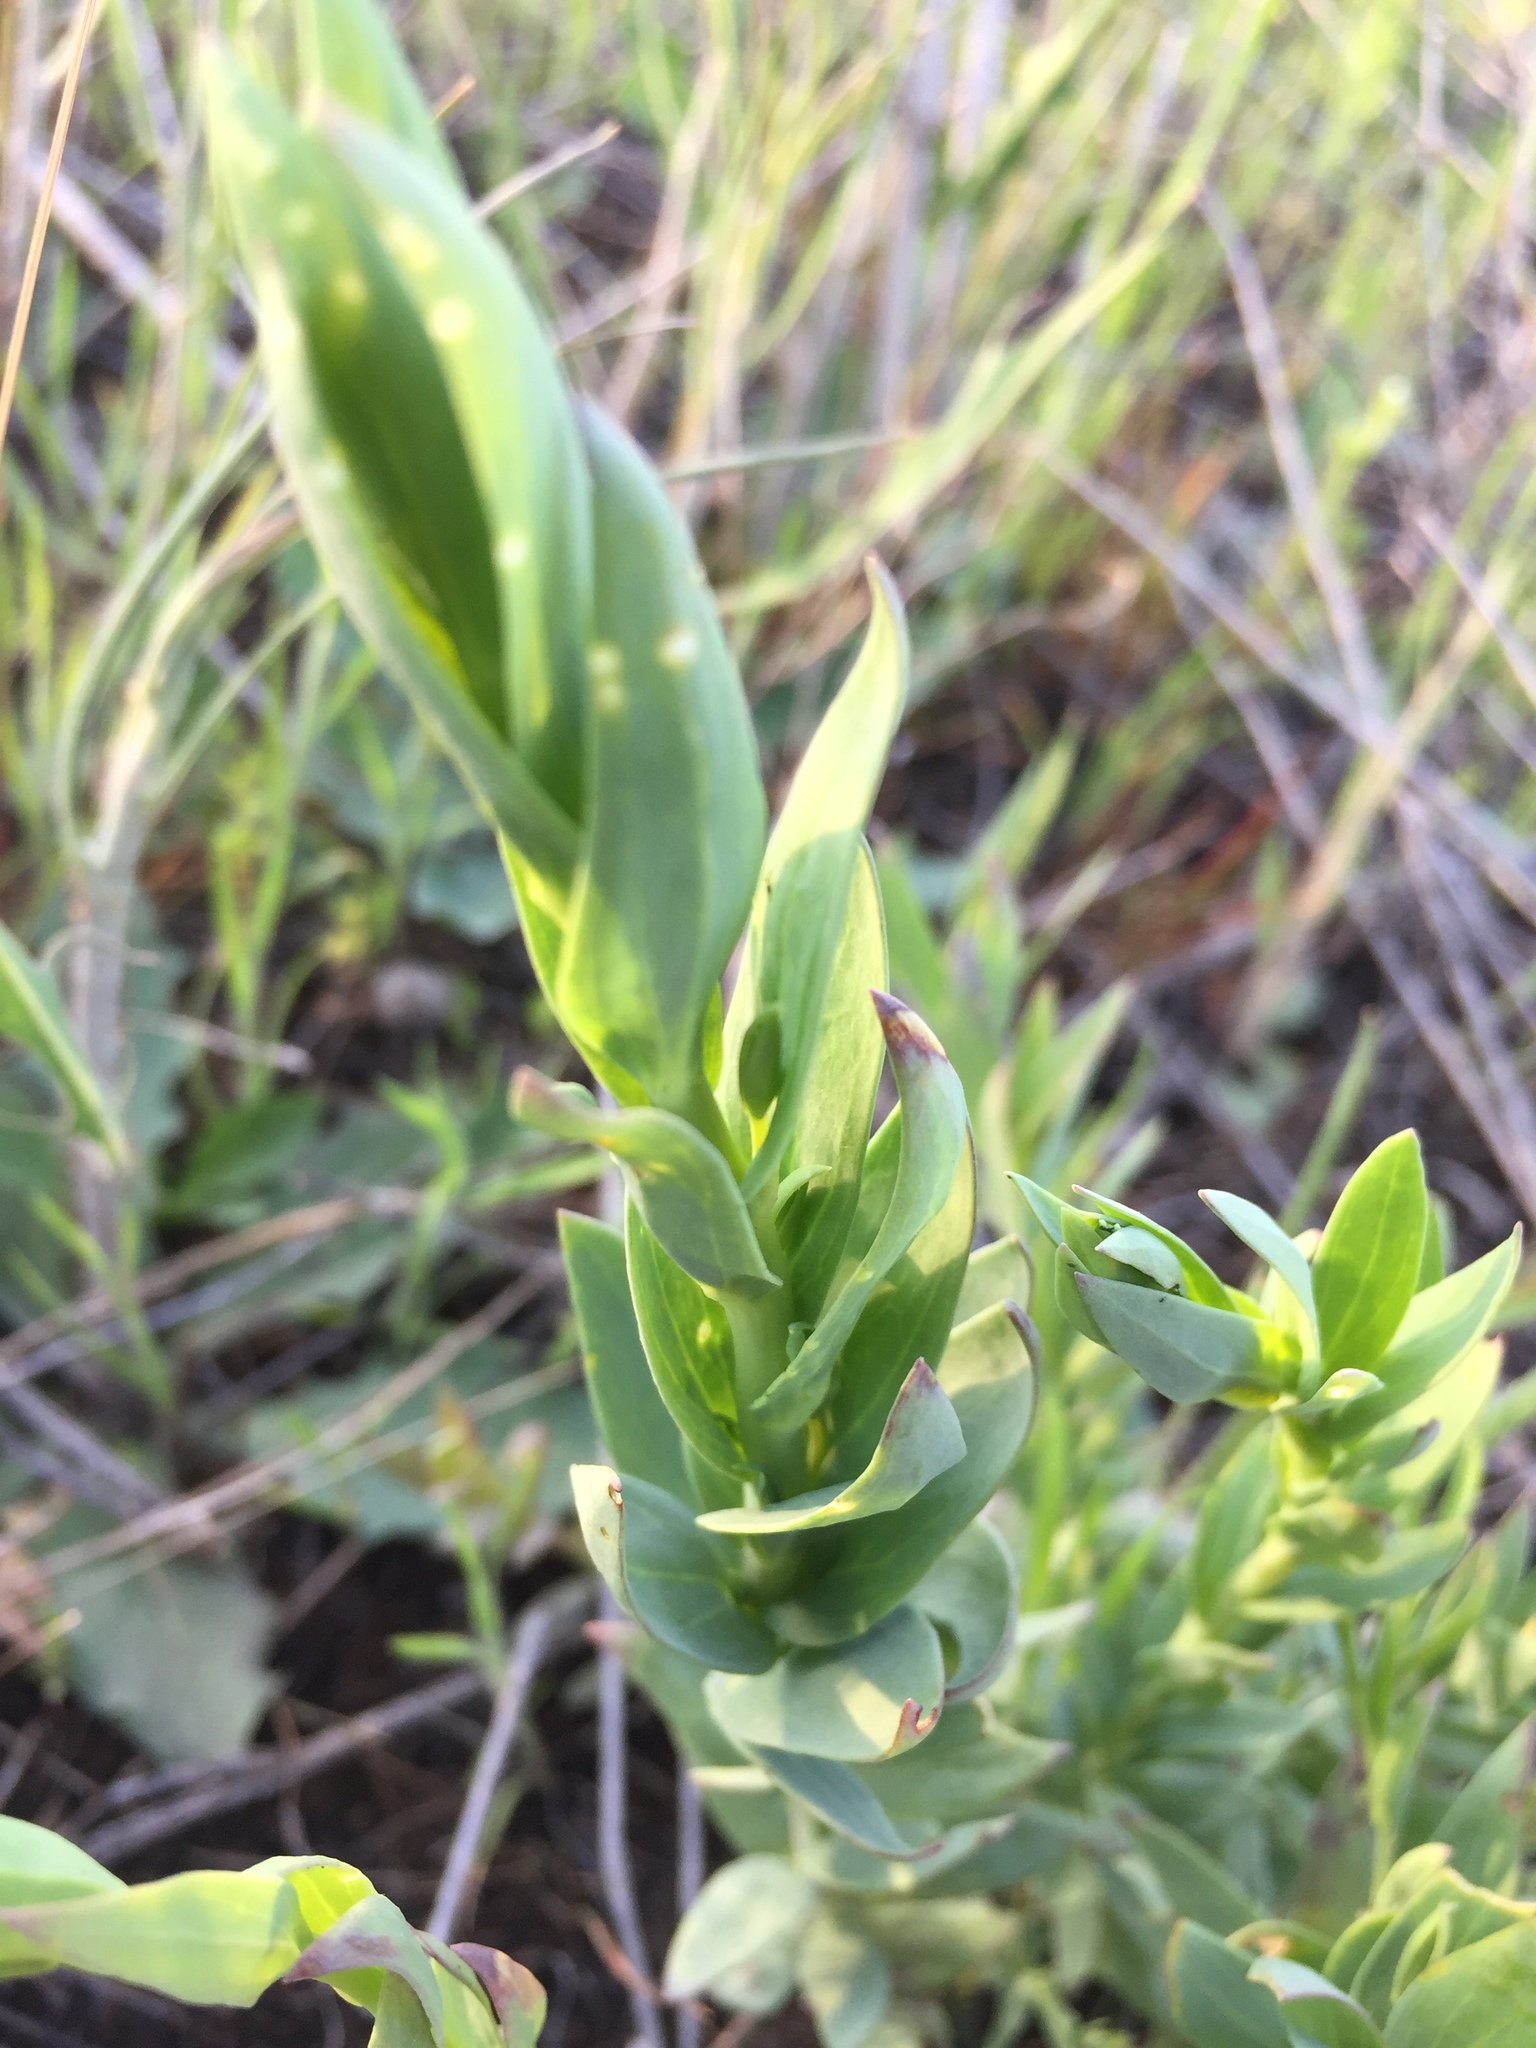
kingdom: Plantae
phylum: Tracheophyta
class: Magnoliopsida
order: Lamiales
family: Plantaginaceae
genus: Linaria
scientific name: Linaria genistifolia
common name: Broomleaf toadflax
